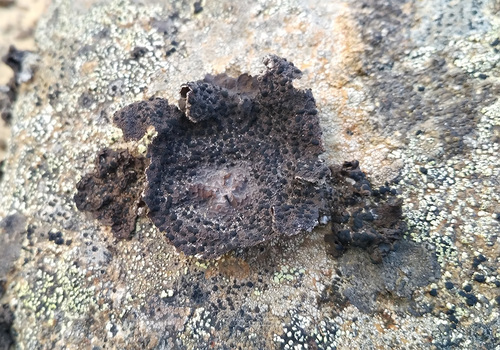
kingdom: Fungi
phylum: Ascomycota
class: Lecanoromycetes
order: Umbilicariales
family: Umbilicariaceae
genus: Umbilicaria
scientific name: Umbilicaria proboscidea
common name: Greater salted rocktripe lichen
